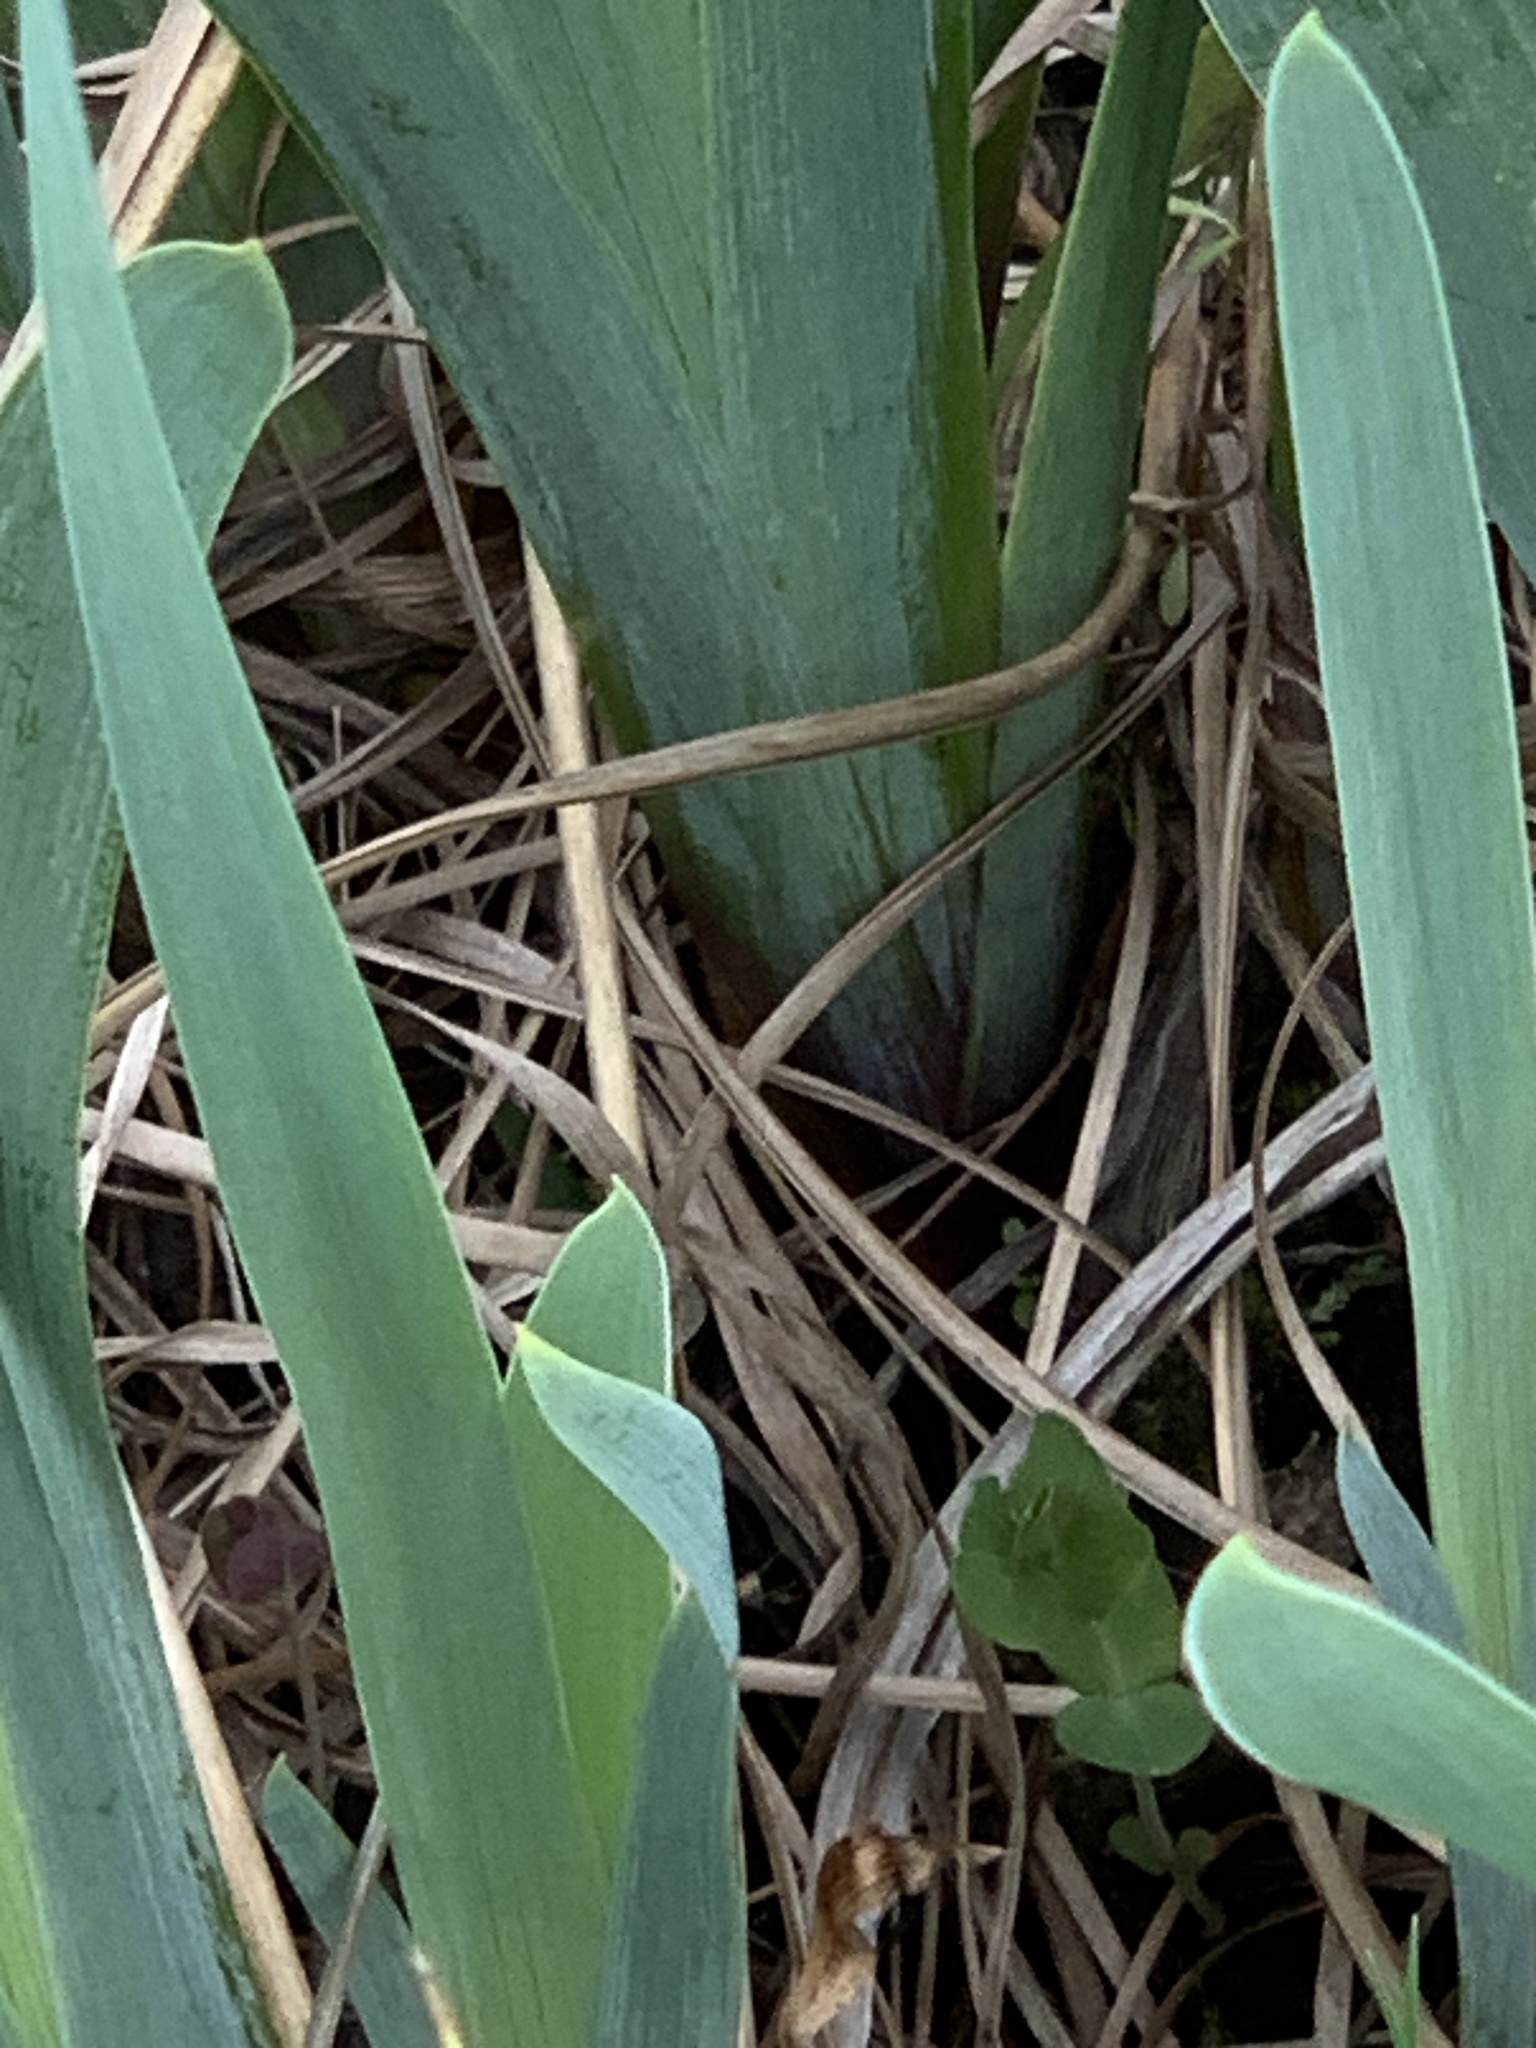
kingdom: Plantae
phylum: Tracheophyta
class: Liliopsida
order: Asparagales
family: Iridaceae
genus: Iris
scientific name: Iris versicolor
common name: Purple iris
